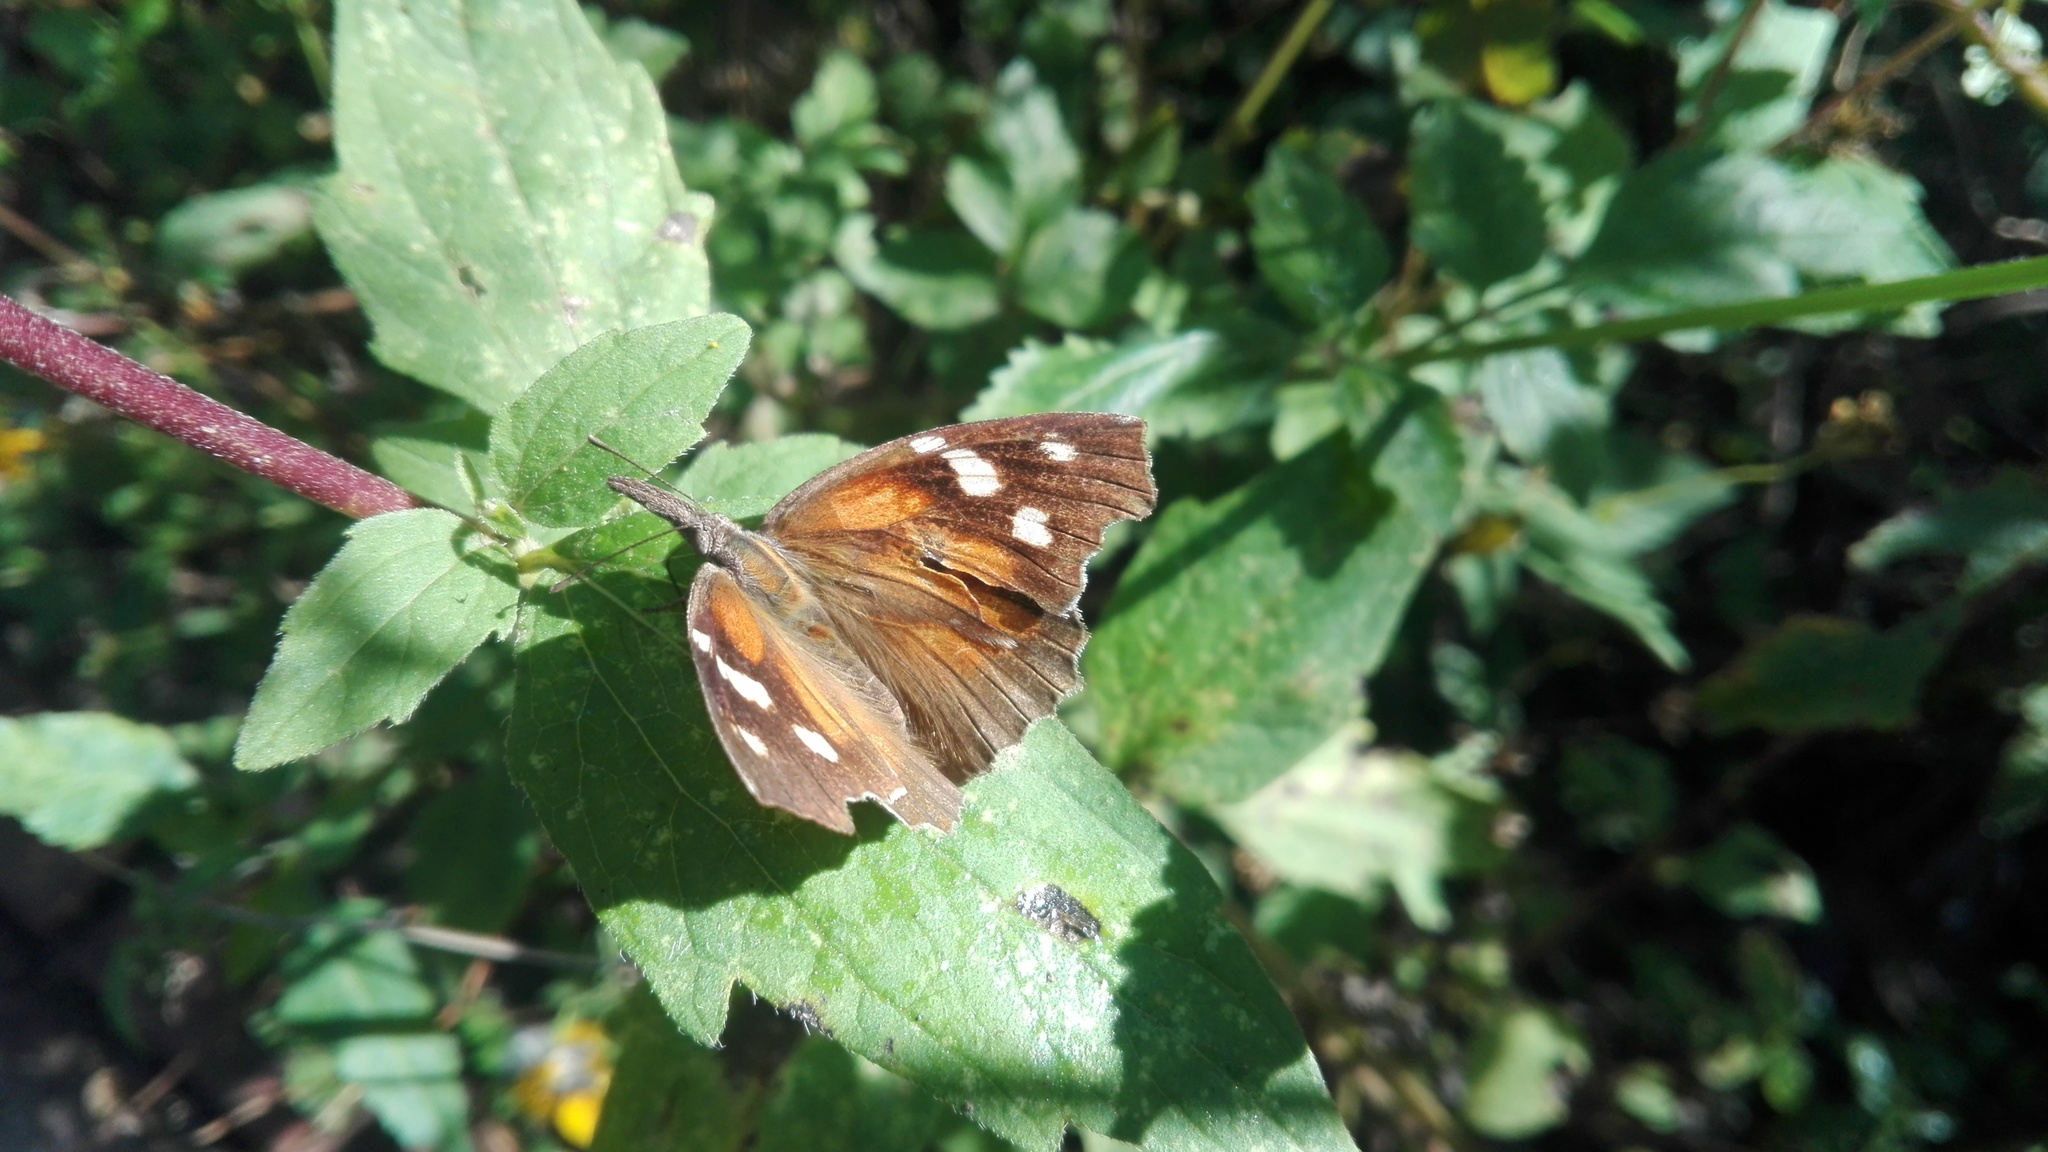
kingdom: Animalia
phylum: Arthropoda
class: Insecta
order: Lepidoptera
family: Nymphalidae
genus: Libytheana
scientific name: Libytheana carinenta
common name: American snout
